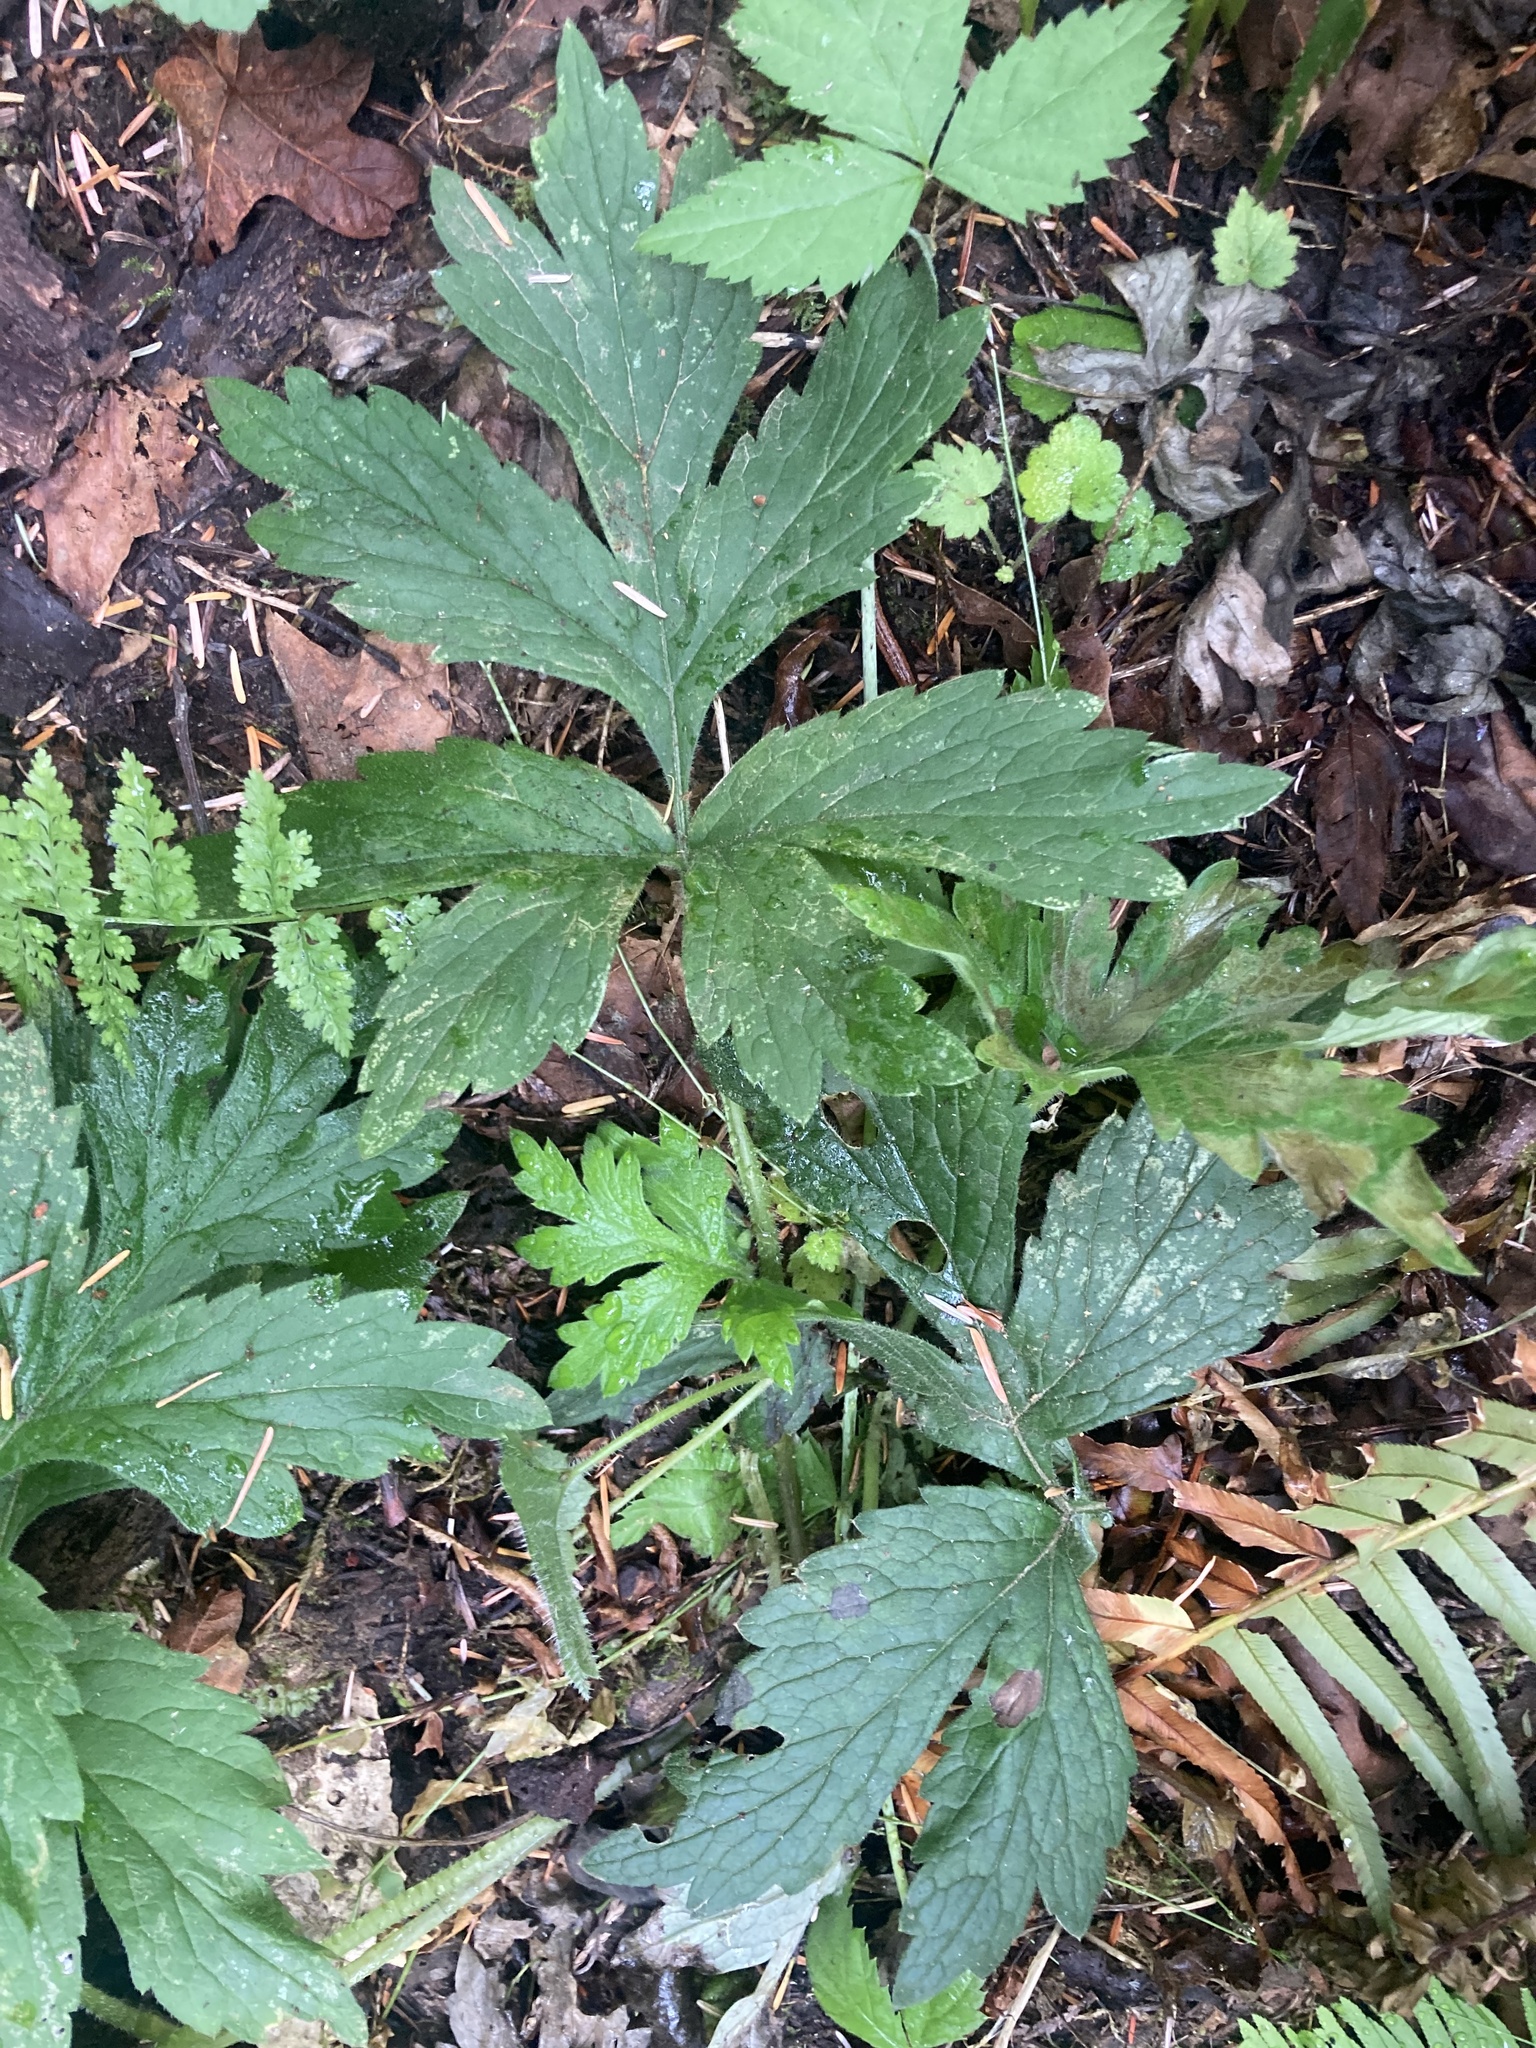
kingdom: Plantae
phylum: Tracheophyta
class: Magnoliopsida
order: Boraginales
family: Hydrophyllaceae
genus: Hydrophyllum
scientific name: Hydrophyllum tenuipes
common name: Pacific waterleaf
